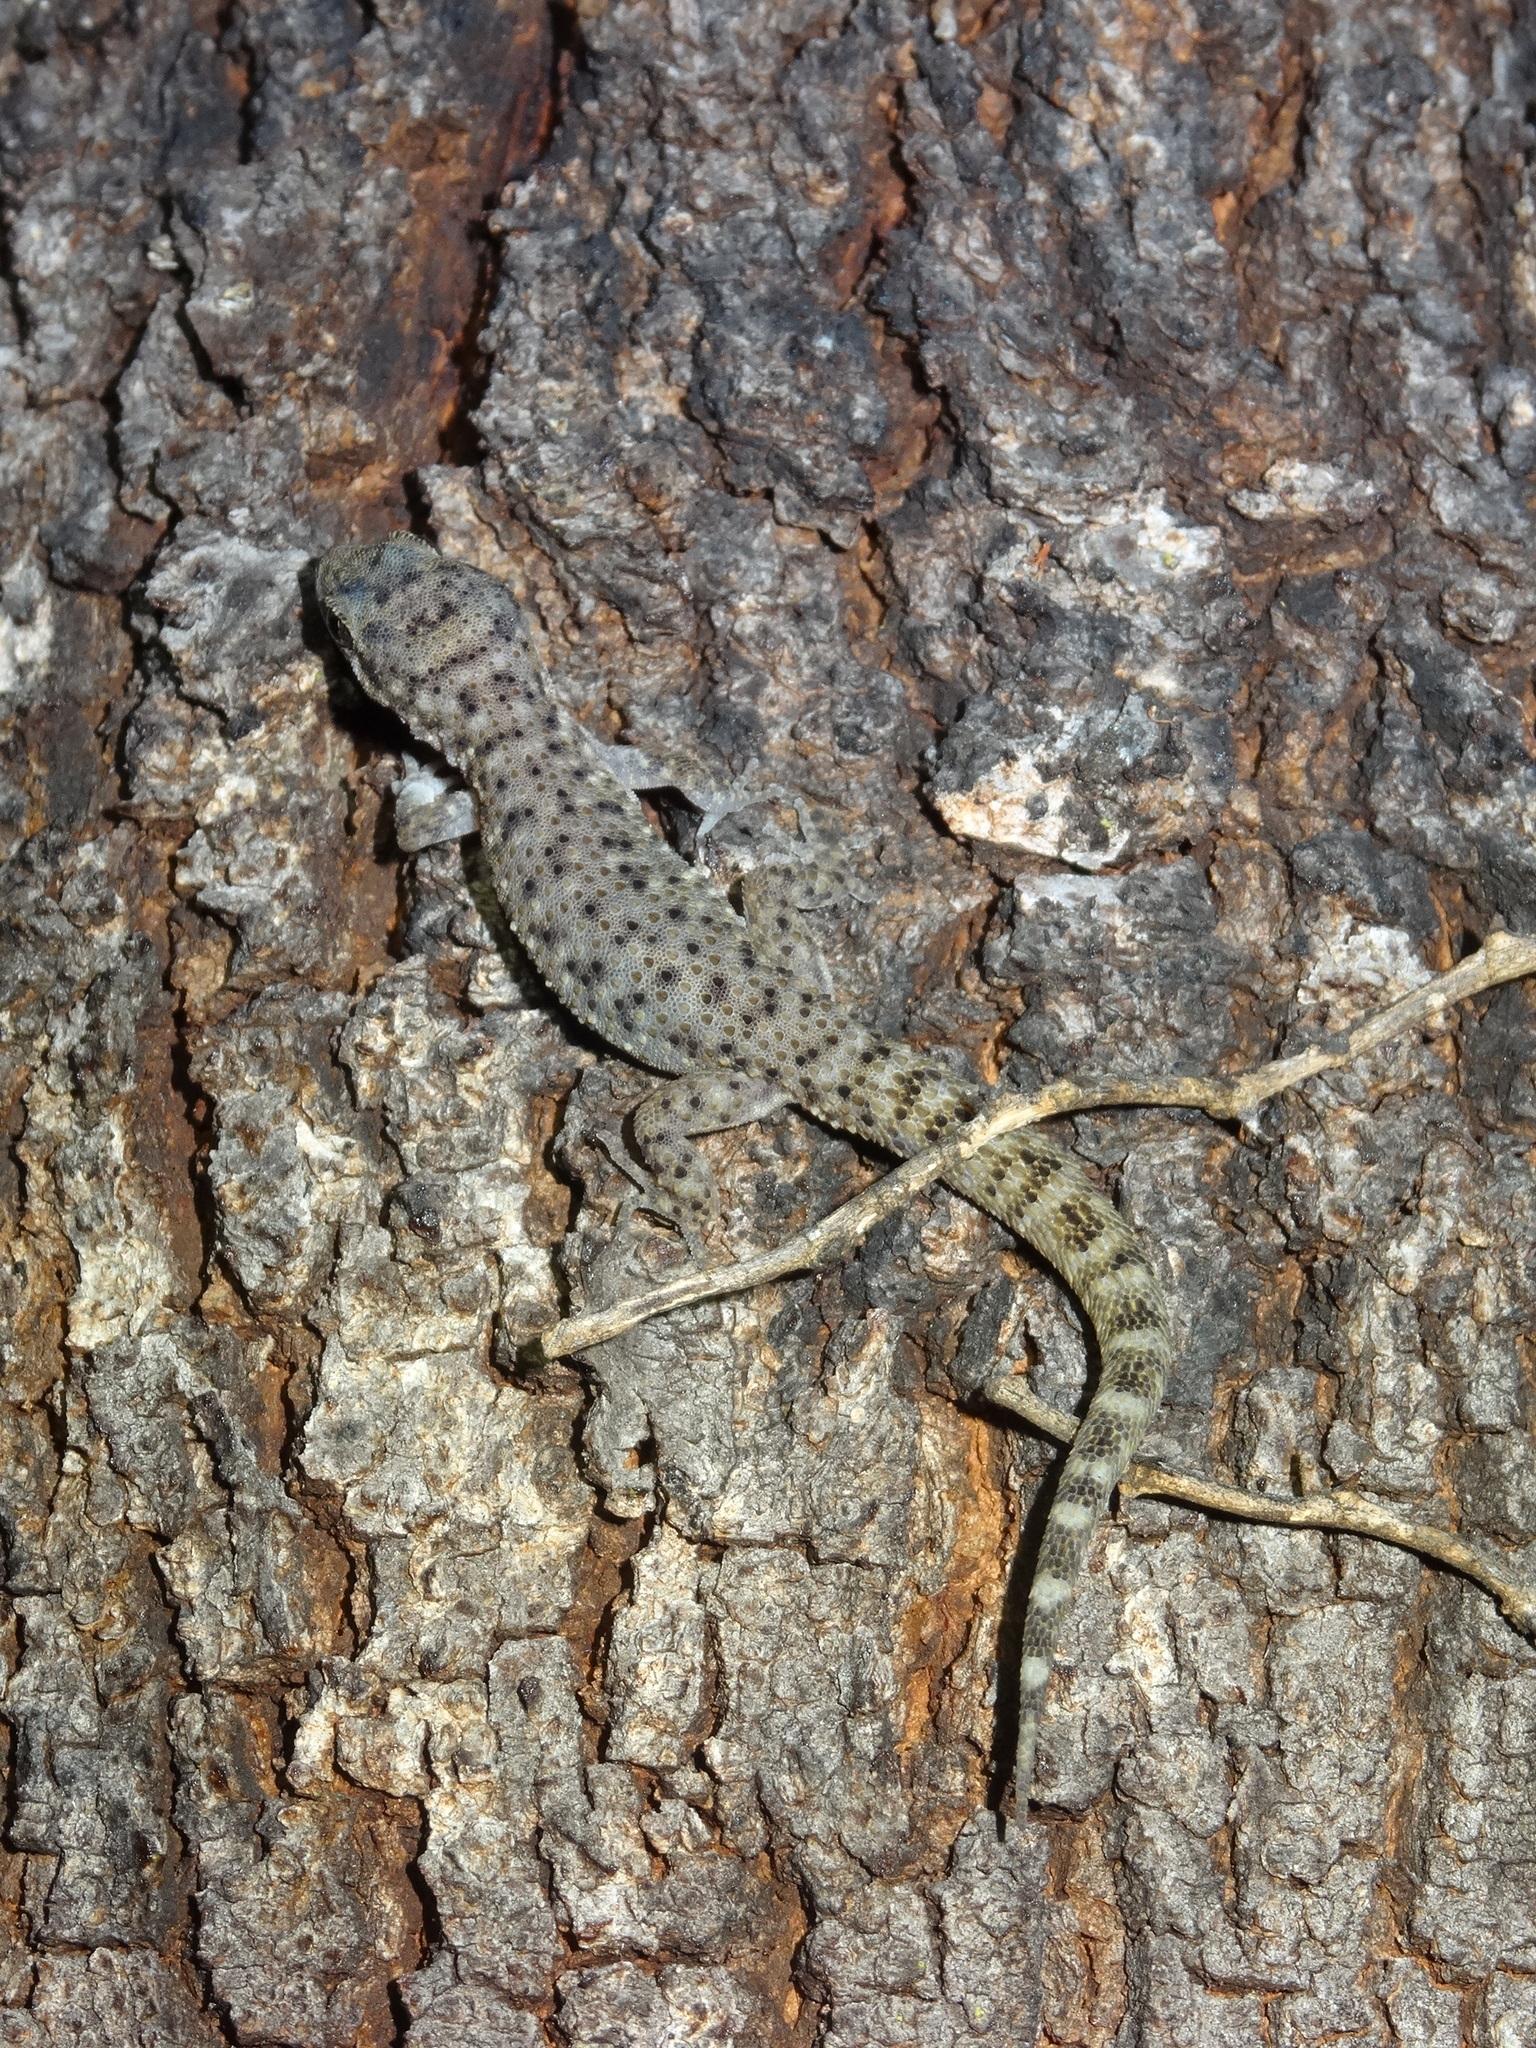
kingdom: Animalia
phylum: Chordata
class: Squamata
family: Gekkonidae
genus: Heteronotia
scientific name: Heteronotia binoei
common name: Bynoe's gecko
